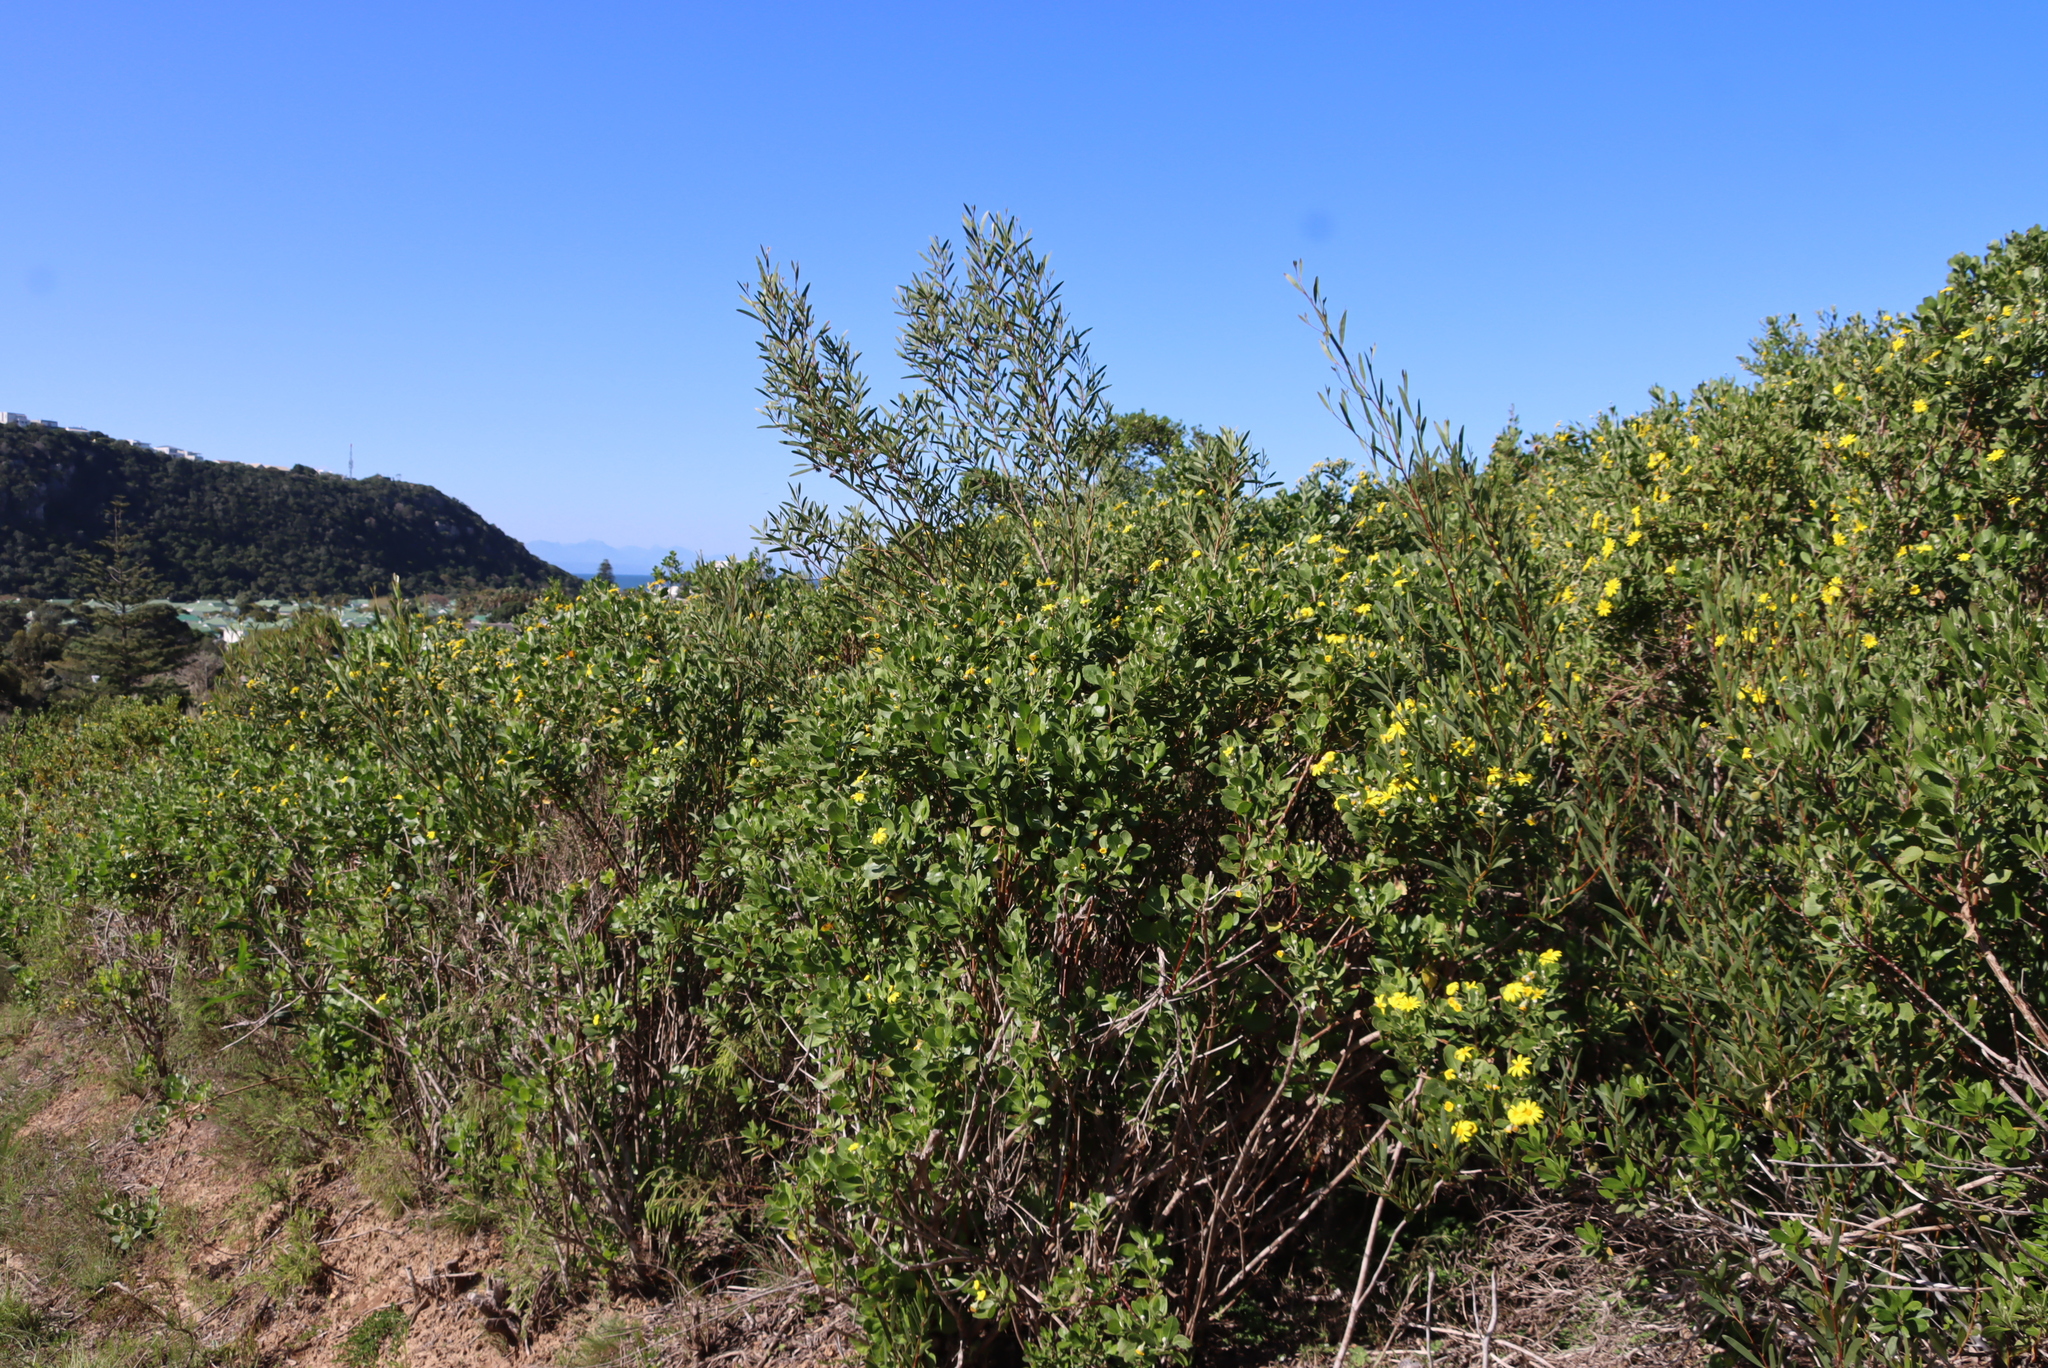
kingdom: Plantae
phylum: Tracheophyta
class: Magnoliopsida
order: Asterales
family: Asteraceae
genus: Osteospermum
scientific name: Osteospermum moniliferum
